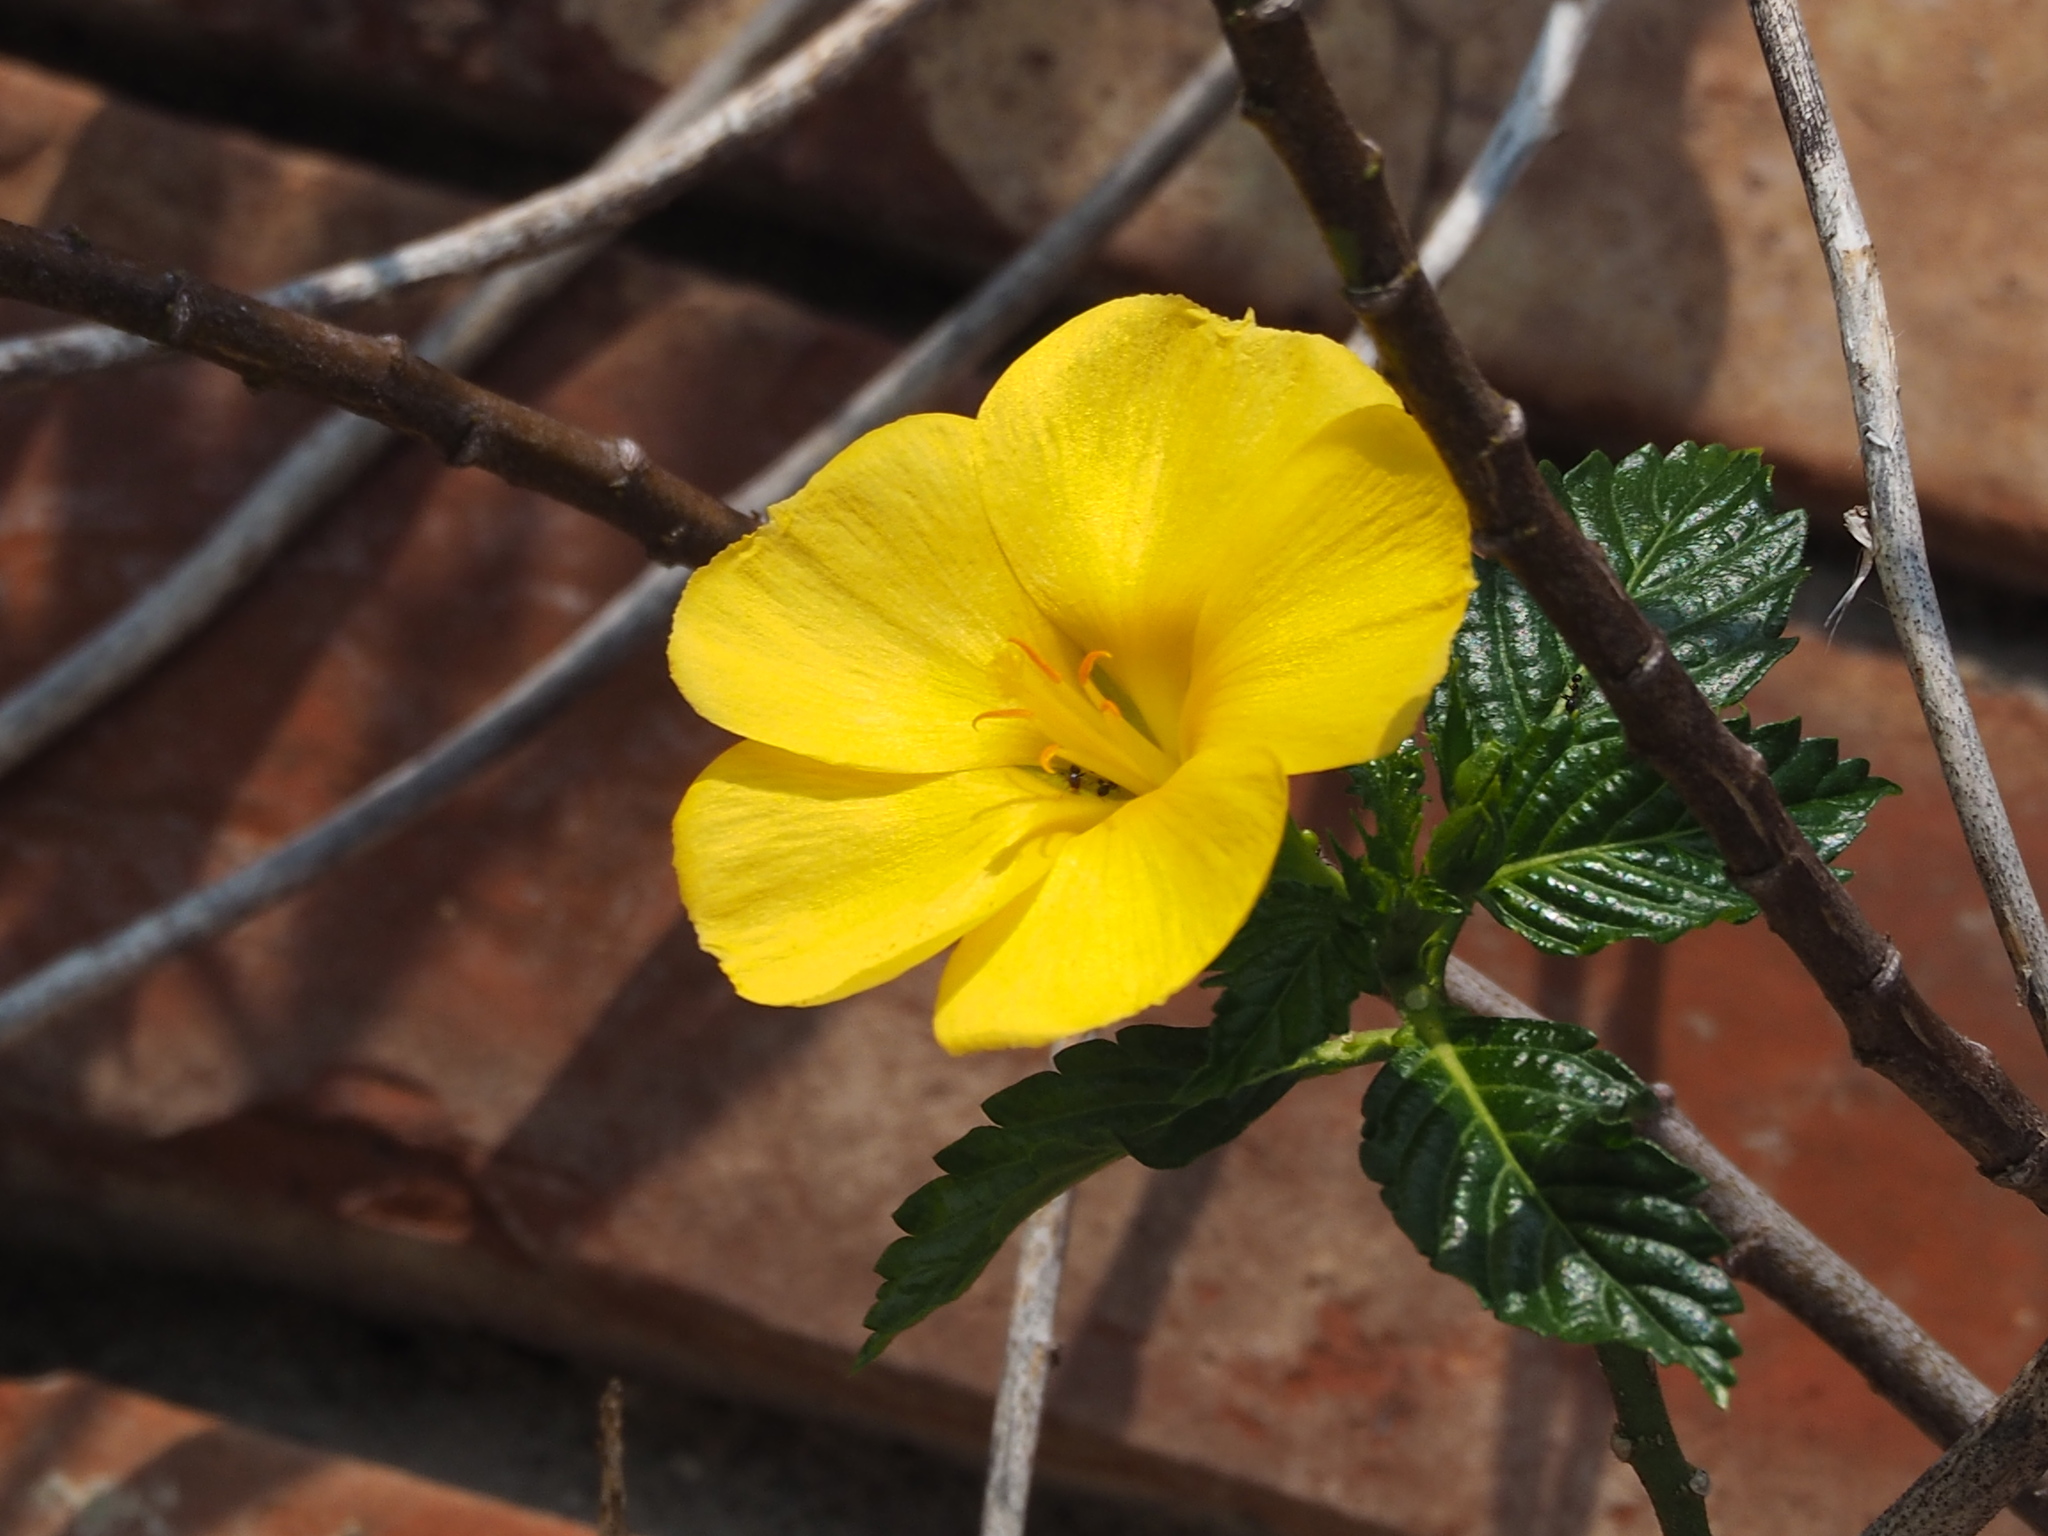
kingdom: Plantae
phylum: Tracheophyta
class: Magnoliopsida
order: Malpighiales
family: Turneraceae
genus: Turnera
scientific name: Turnera ulmifolia
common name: Ramgoat dashalong
